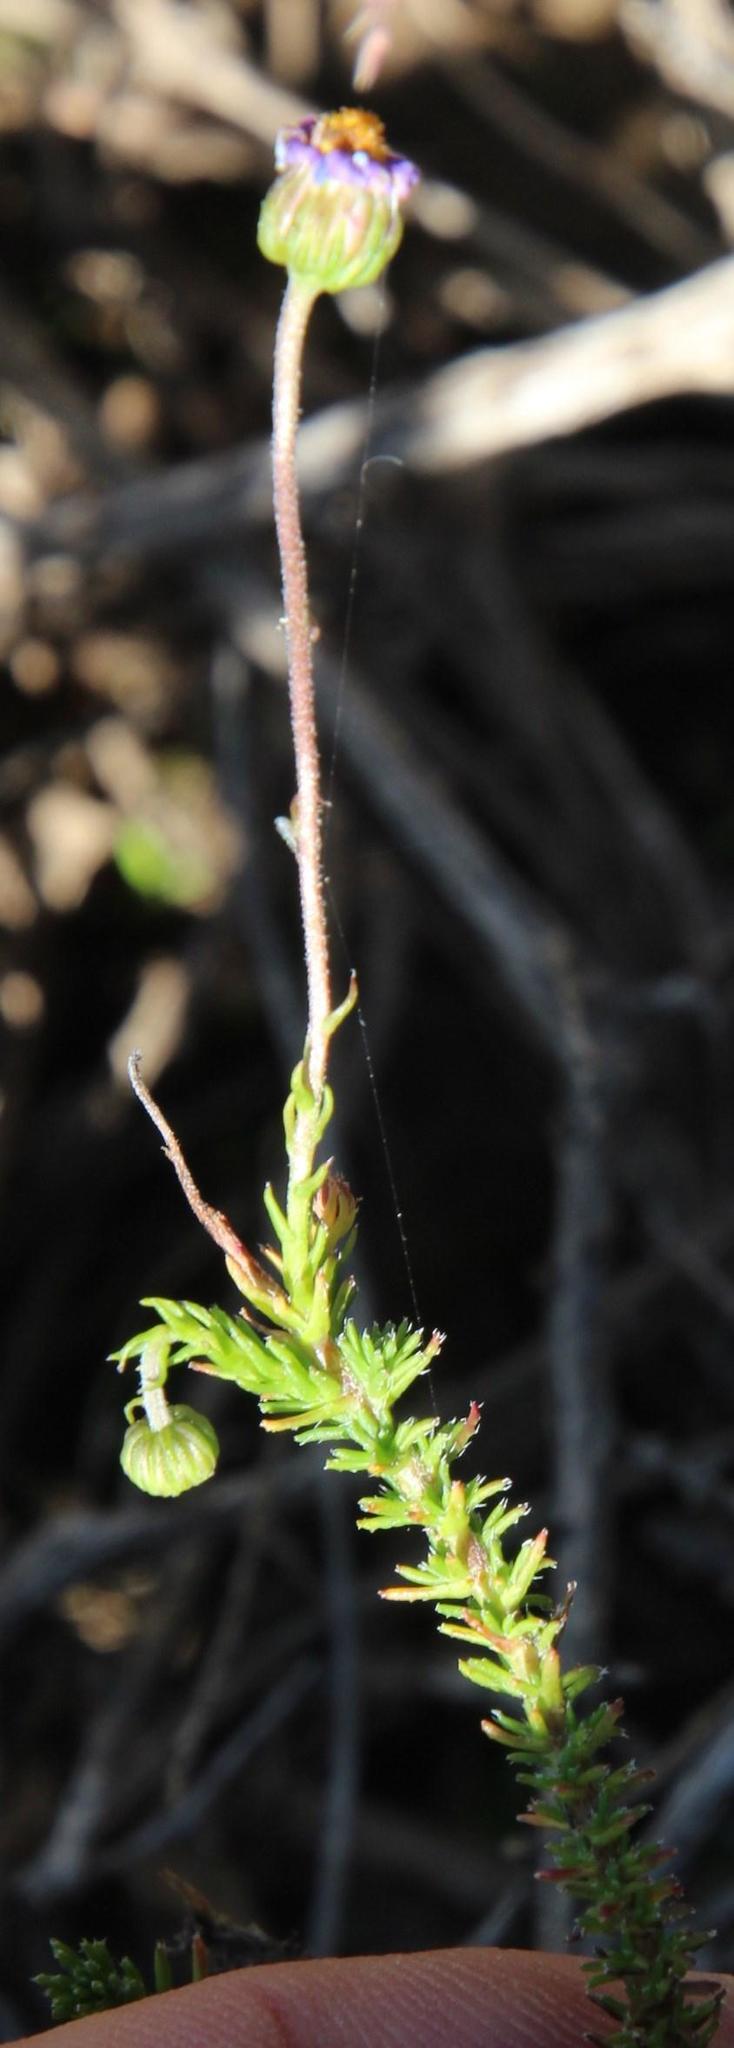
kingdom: Plantae
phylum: Tracheophyta
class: Magnoliopsida
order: Asterales
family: Asteraceae
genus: Felicia
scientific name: Felicia muricata
